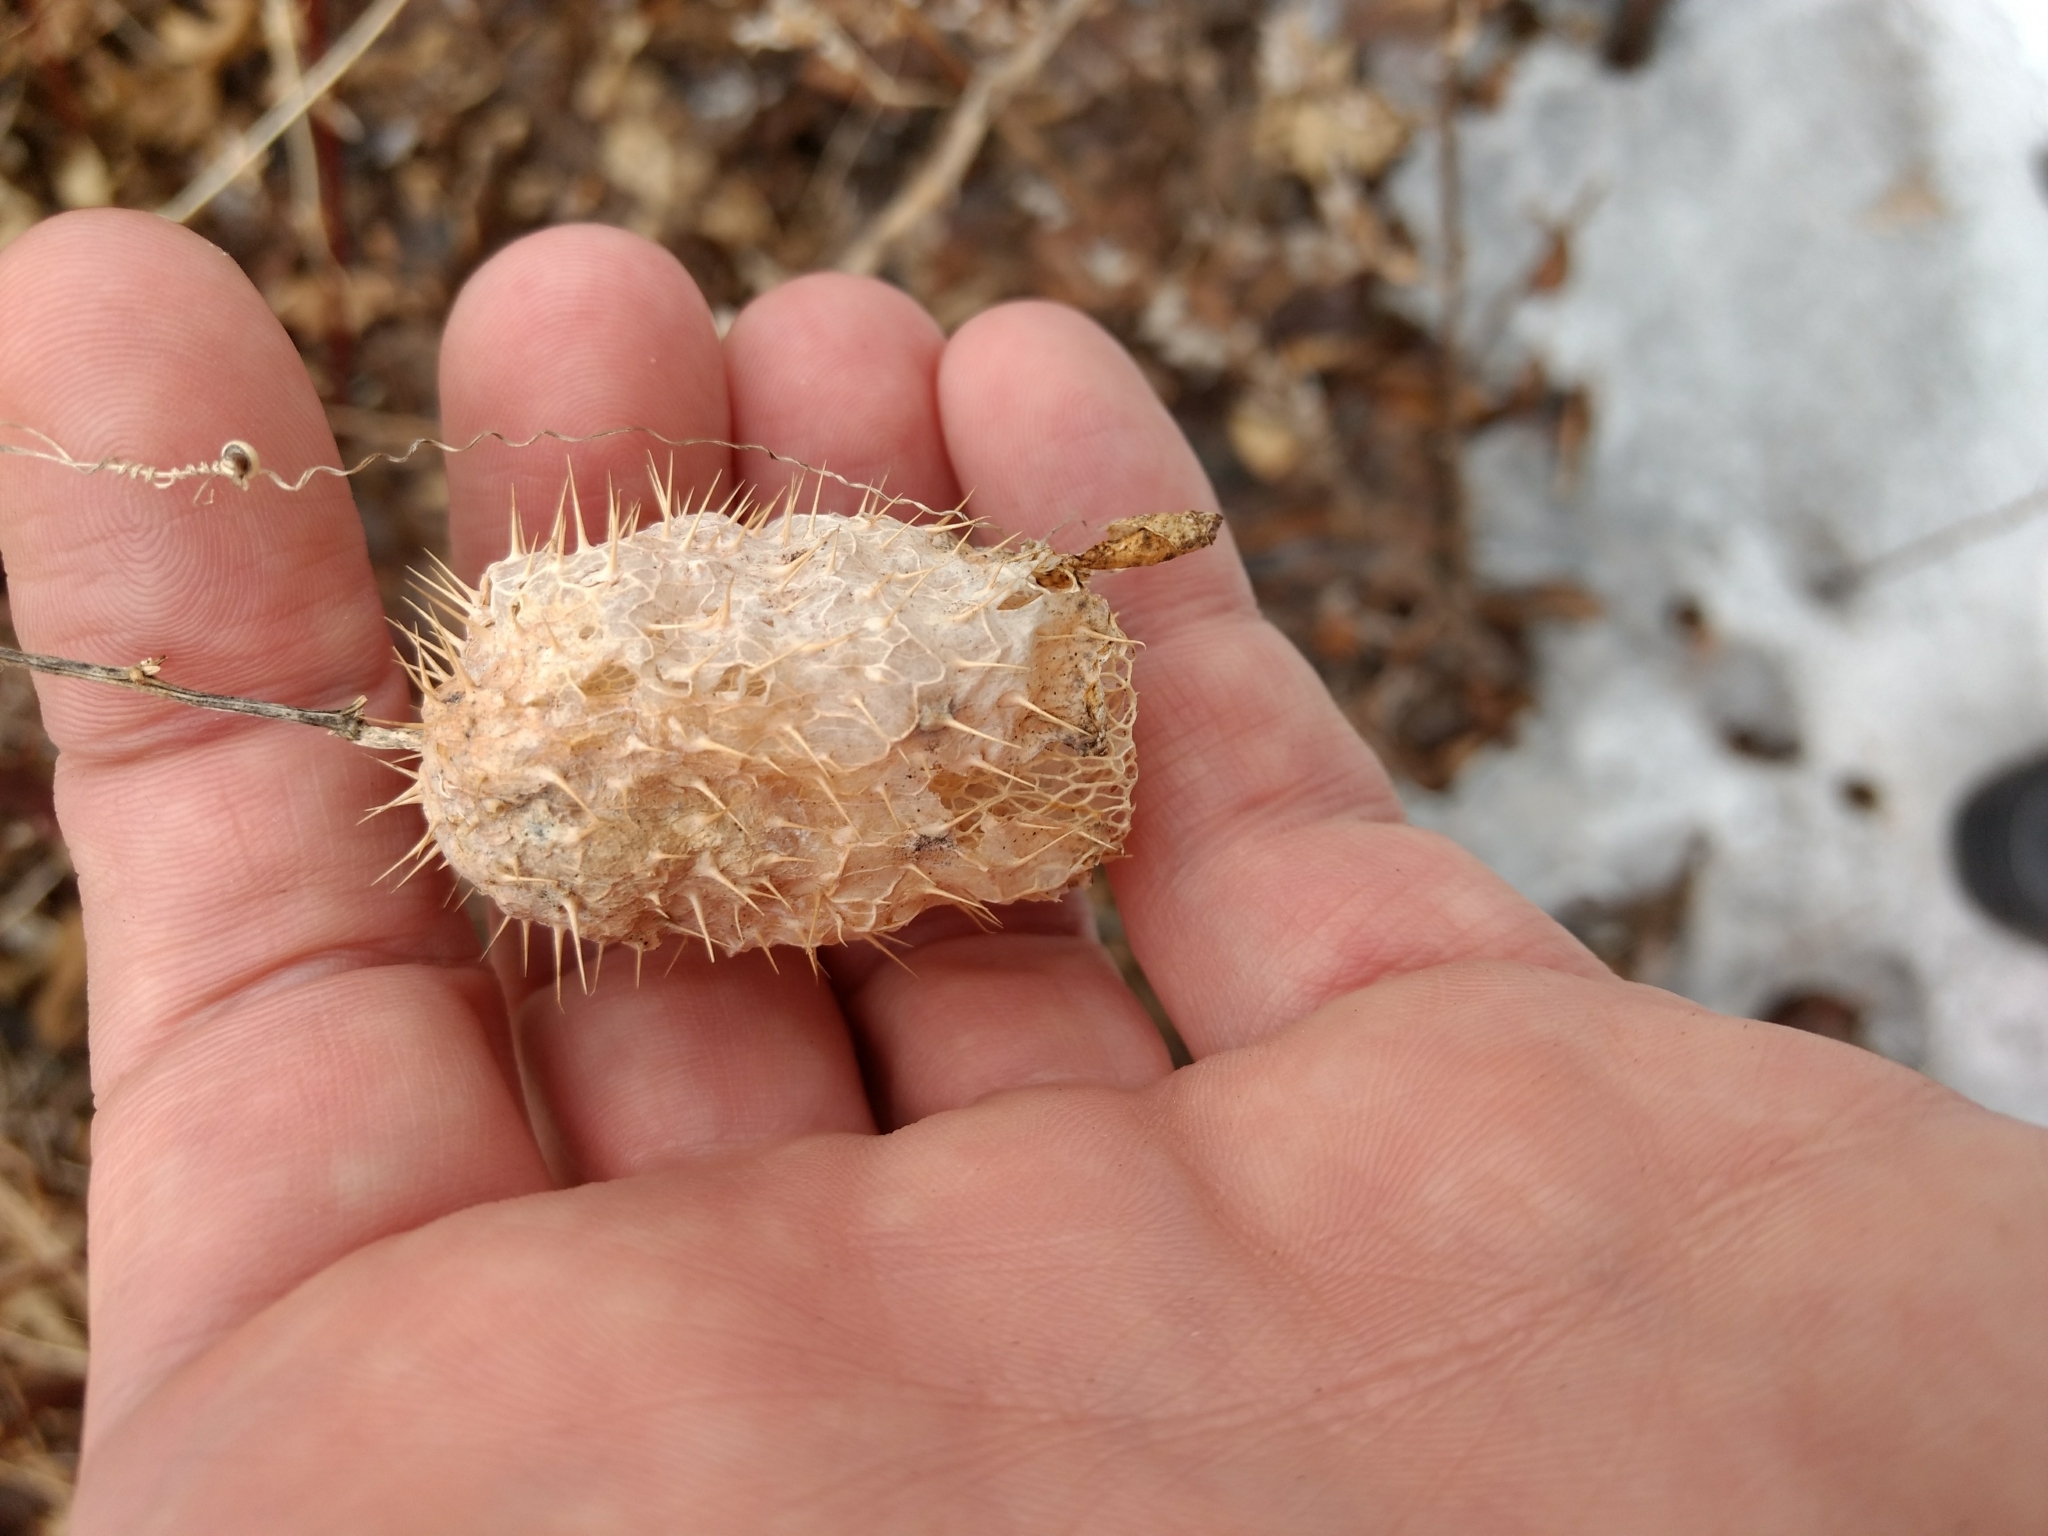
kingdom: Plantae
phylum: Tracheophyta
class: Magnoliopsida
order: Cucurbitales
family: Cucurbitaceae
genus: Echinocystis
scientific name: Echinocystis lobata
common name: Wild cucumber
